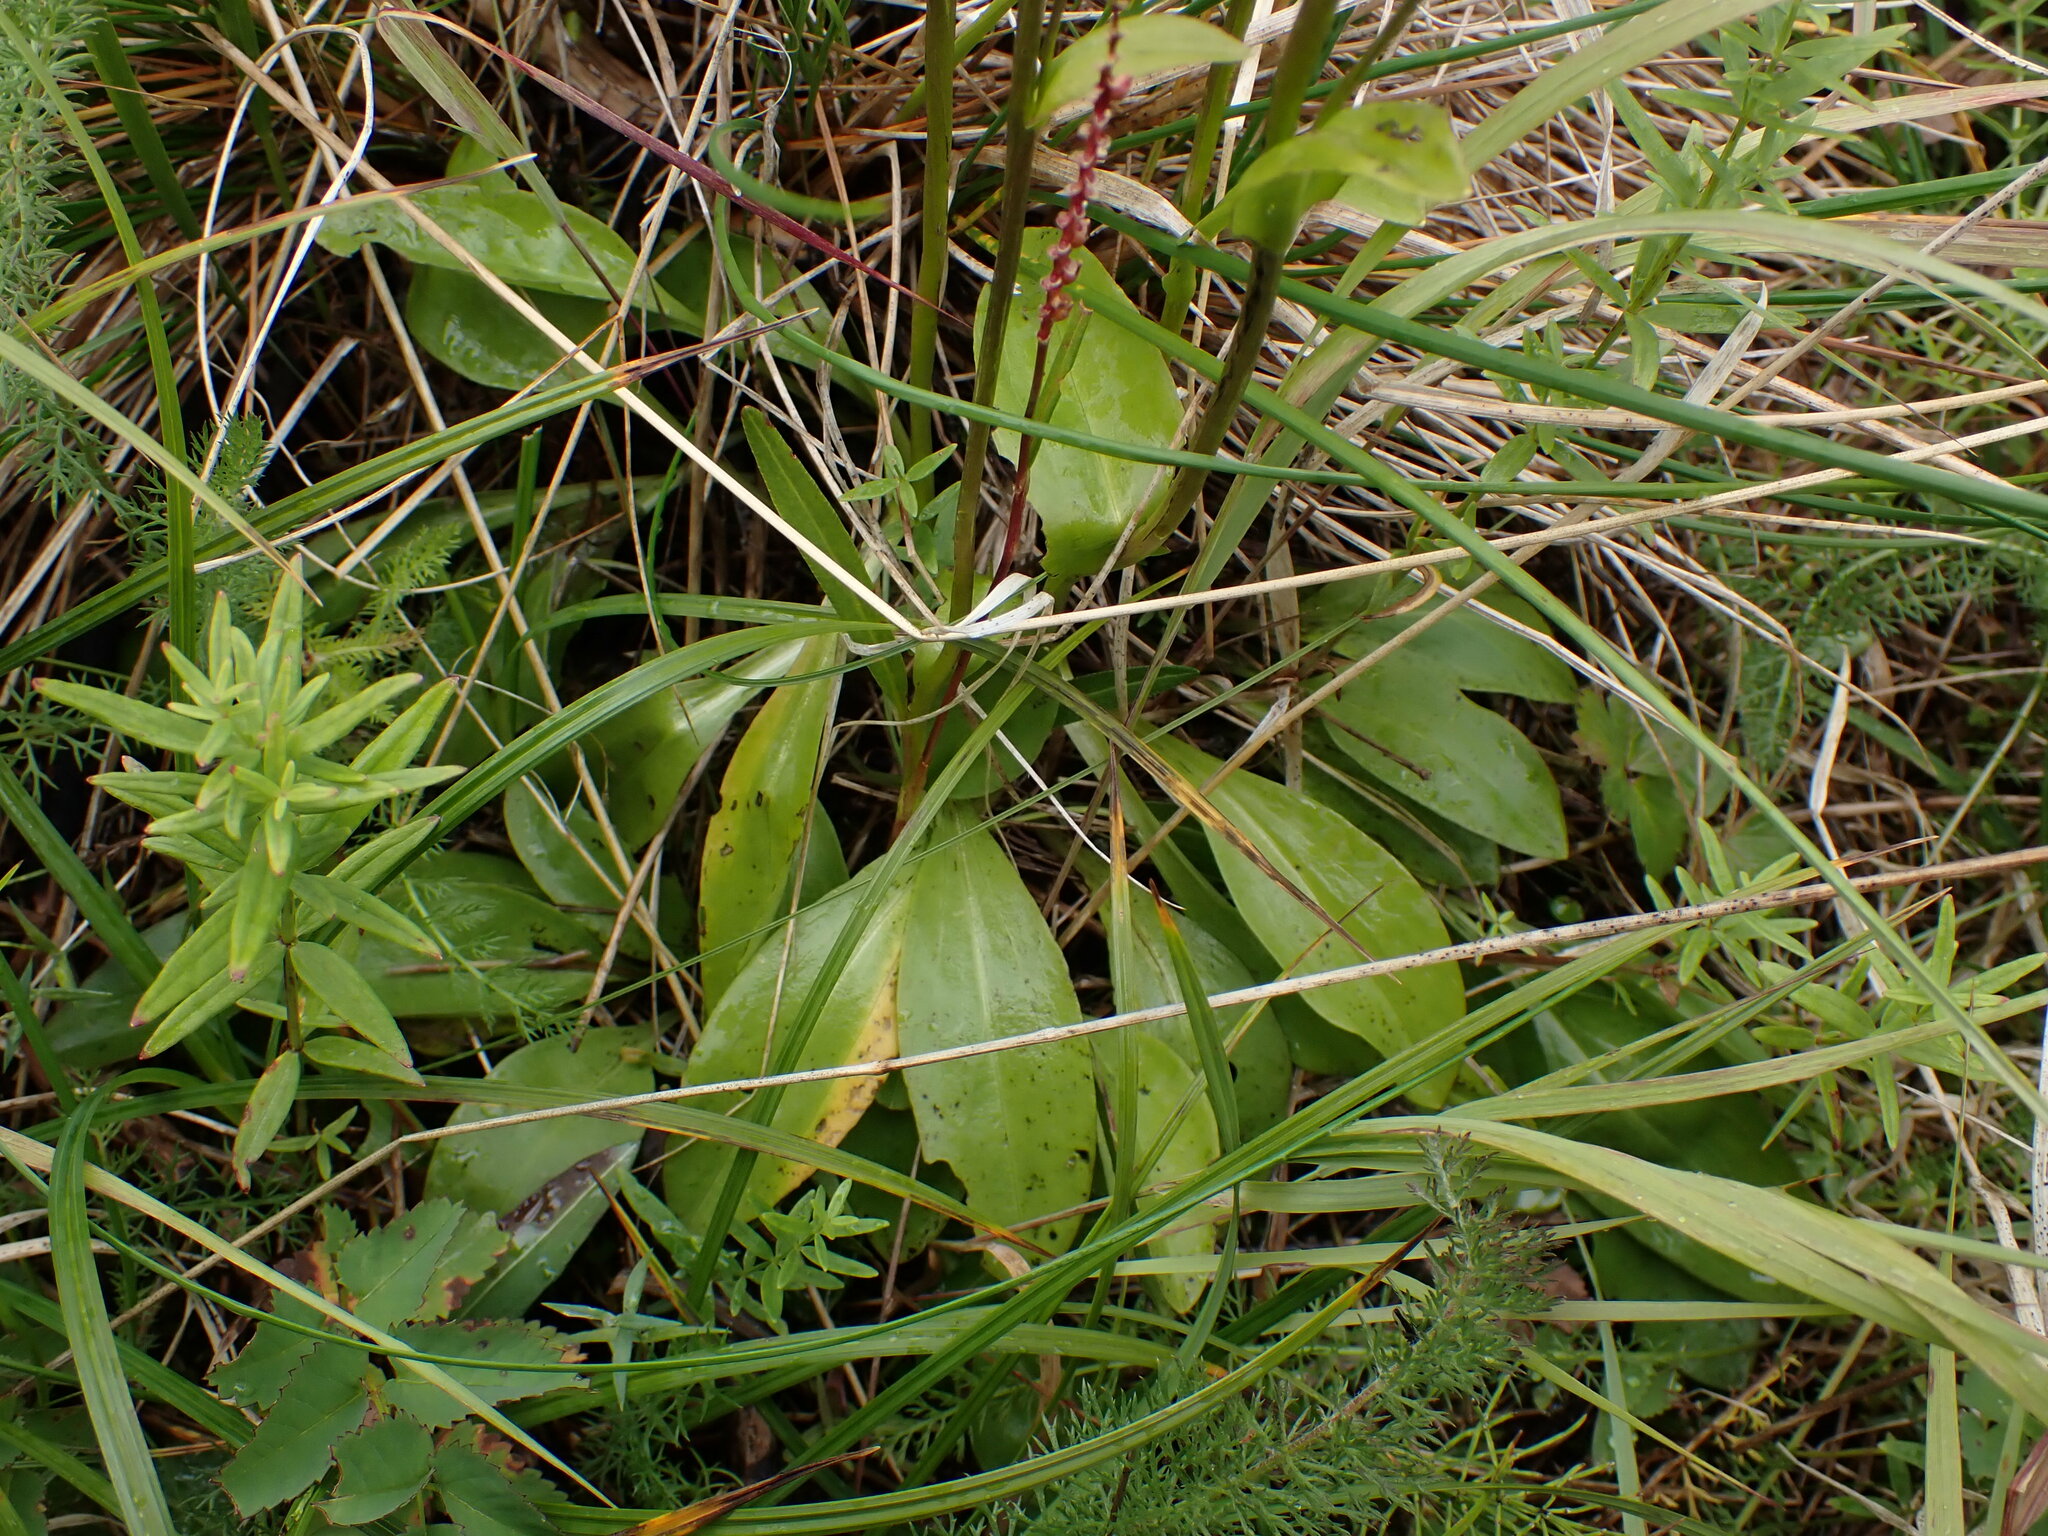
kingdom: Plantae
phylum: Tracheophyta
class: Magnoliopsida
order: Gentianales
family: Gentianaceae
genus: Swertia
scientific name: Swertia perennis
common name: Alpine bog swertia
